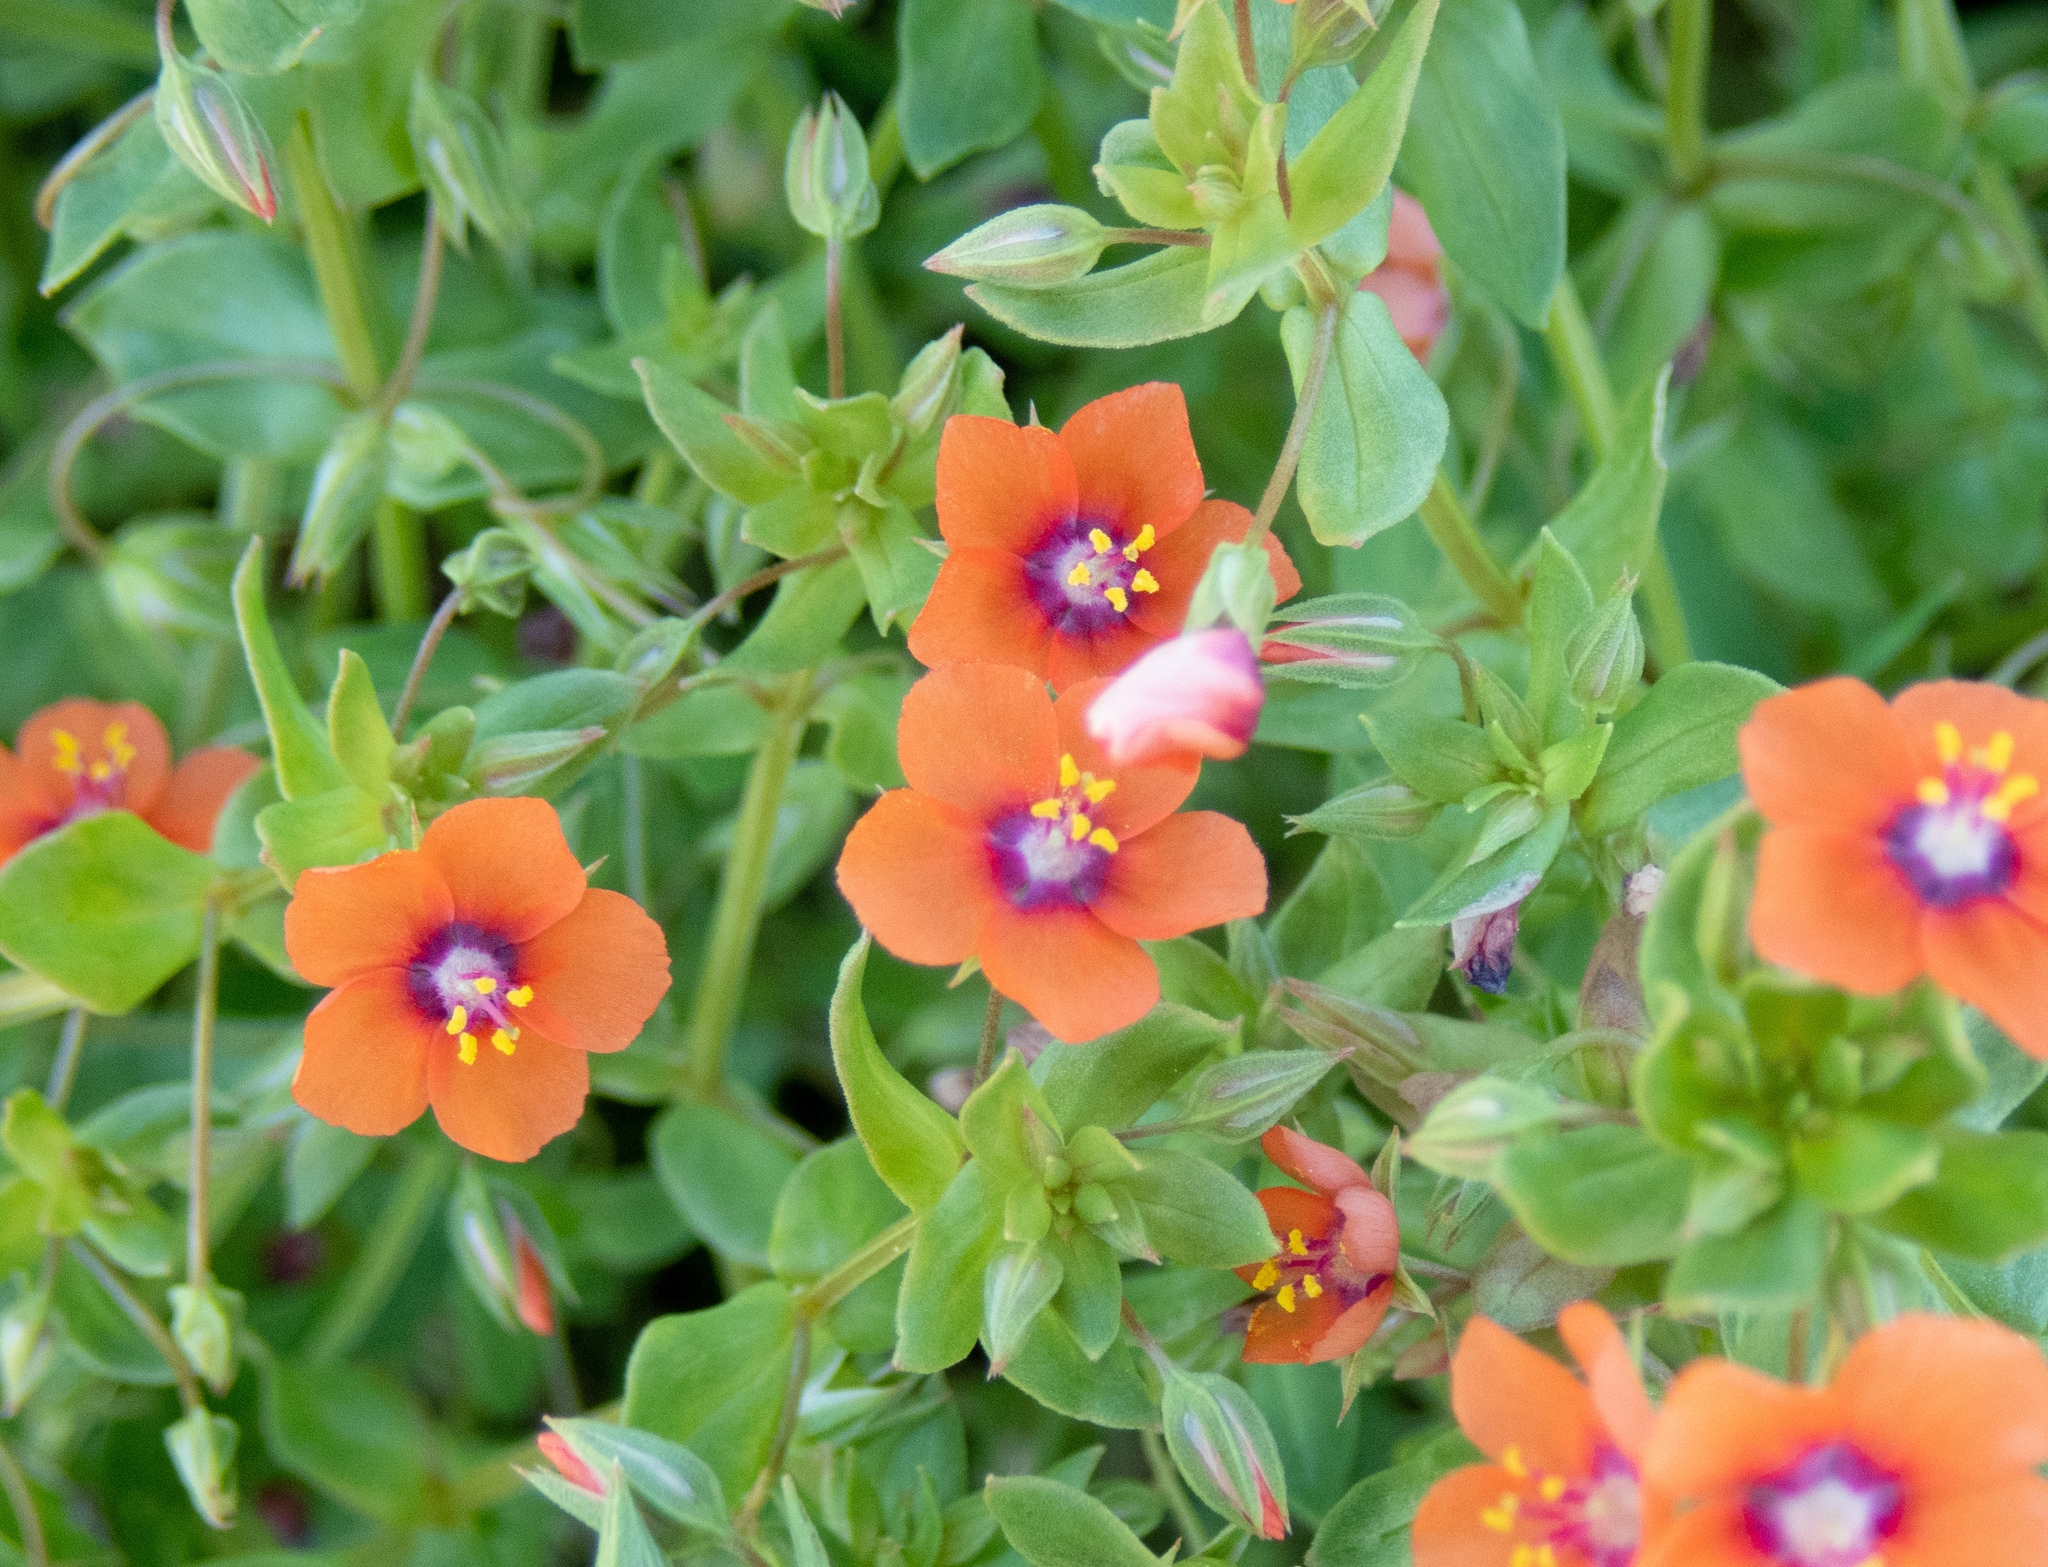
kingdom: Plantae
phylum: Tracheophyta
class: Magnoliopsida
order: Ericales
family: Primulaceae
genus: Lysimachia
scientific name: Lysimachia arvensis
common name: Scarlet pimpernel
